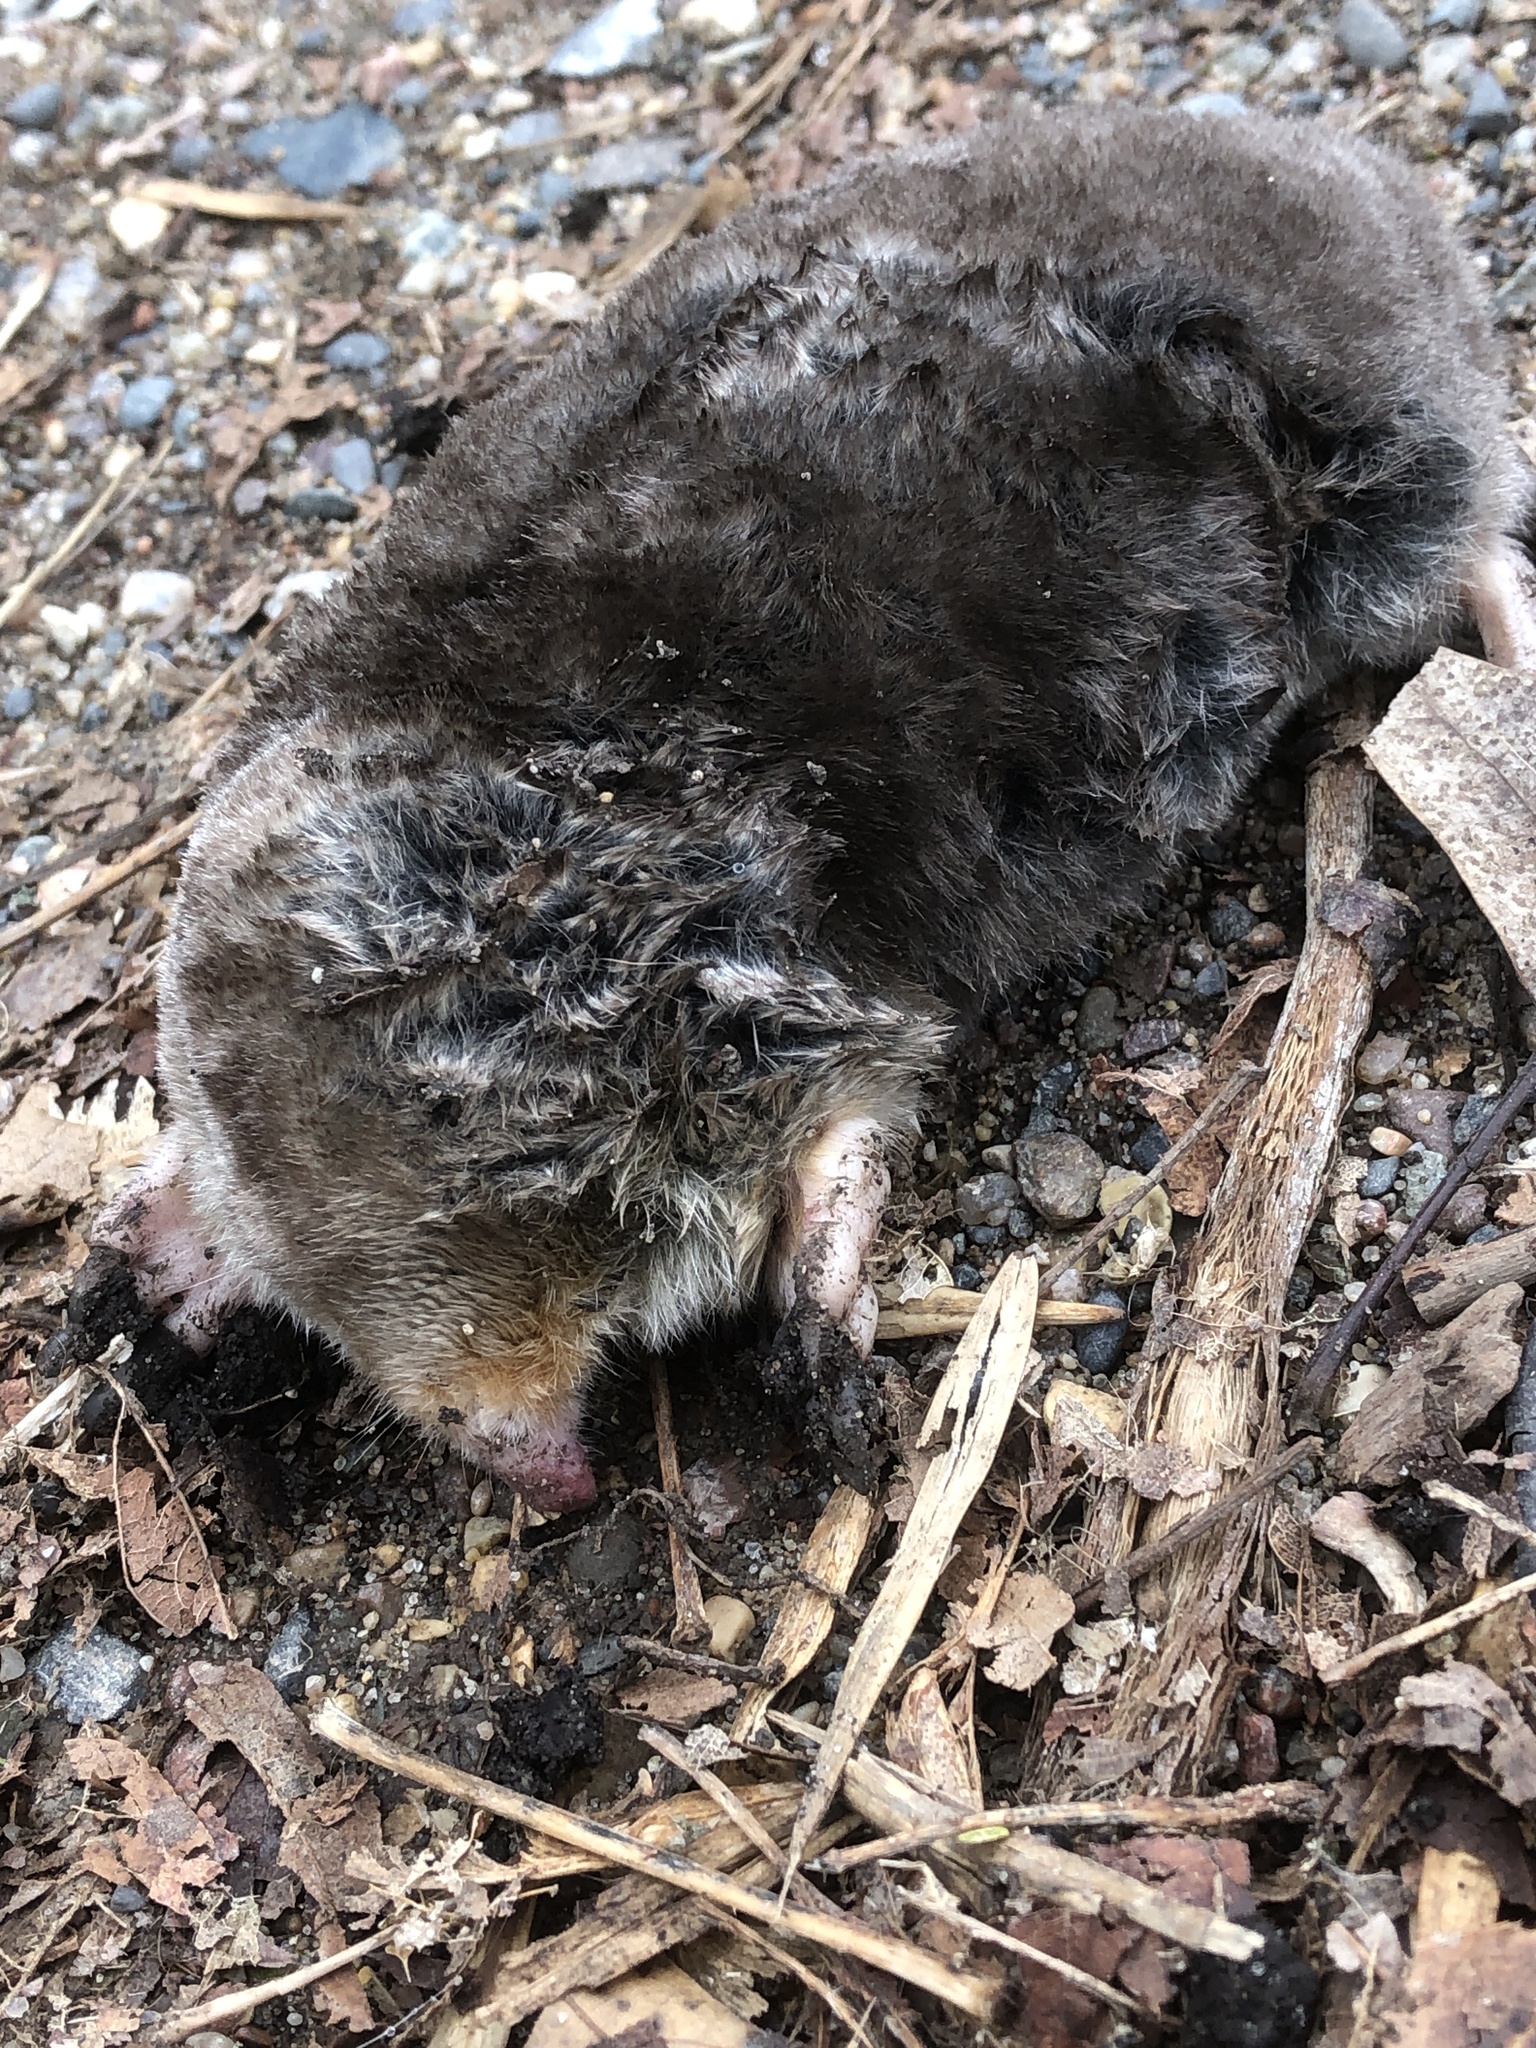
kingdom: Animalia
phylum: Chordata
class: Mammalia
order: Soricomorpha
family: Talpidae
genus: Scalopus
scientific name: Scalopus aquaticus
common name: Eastern mole
